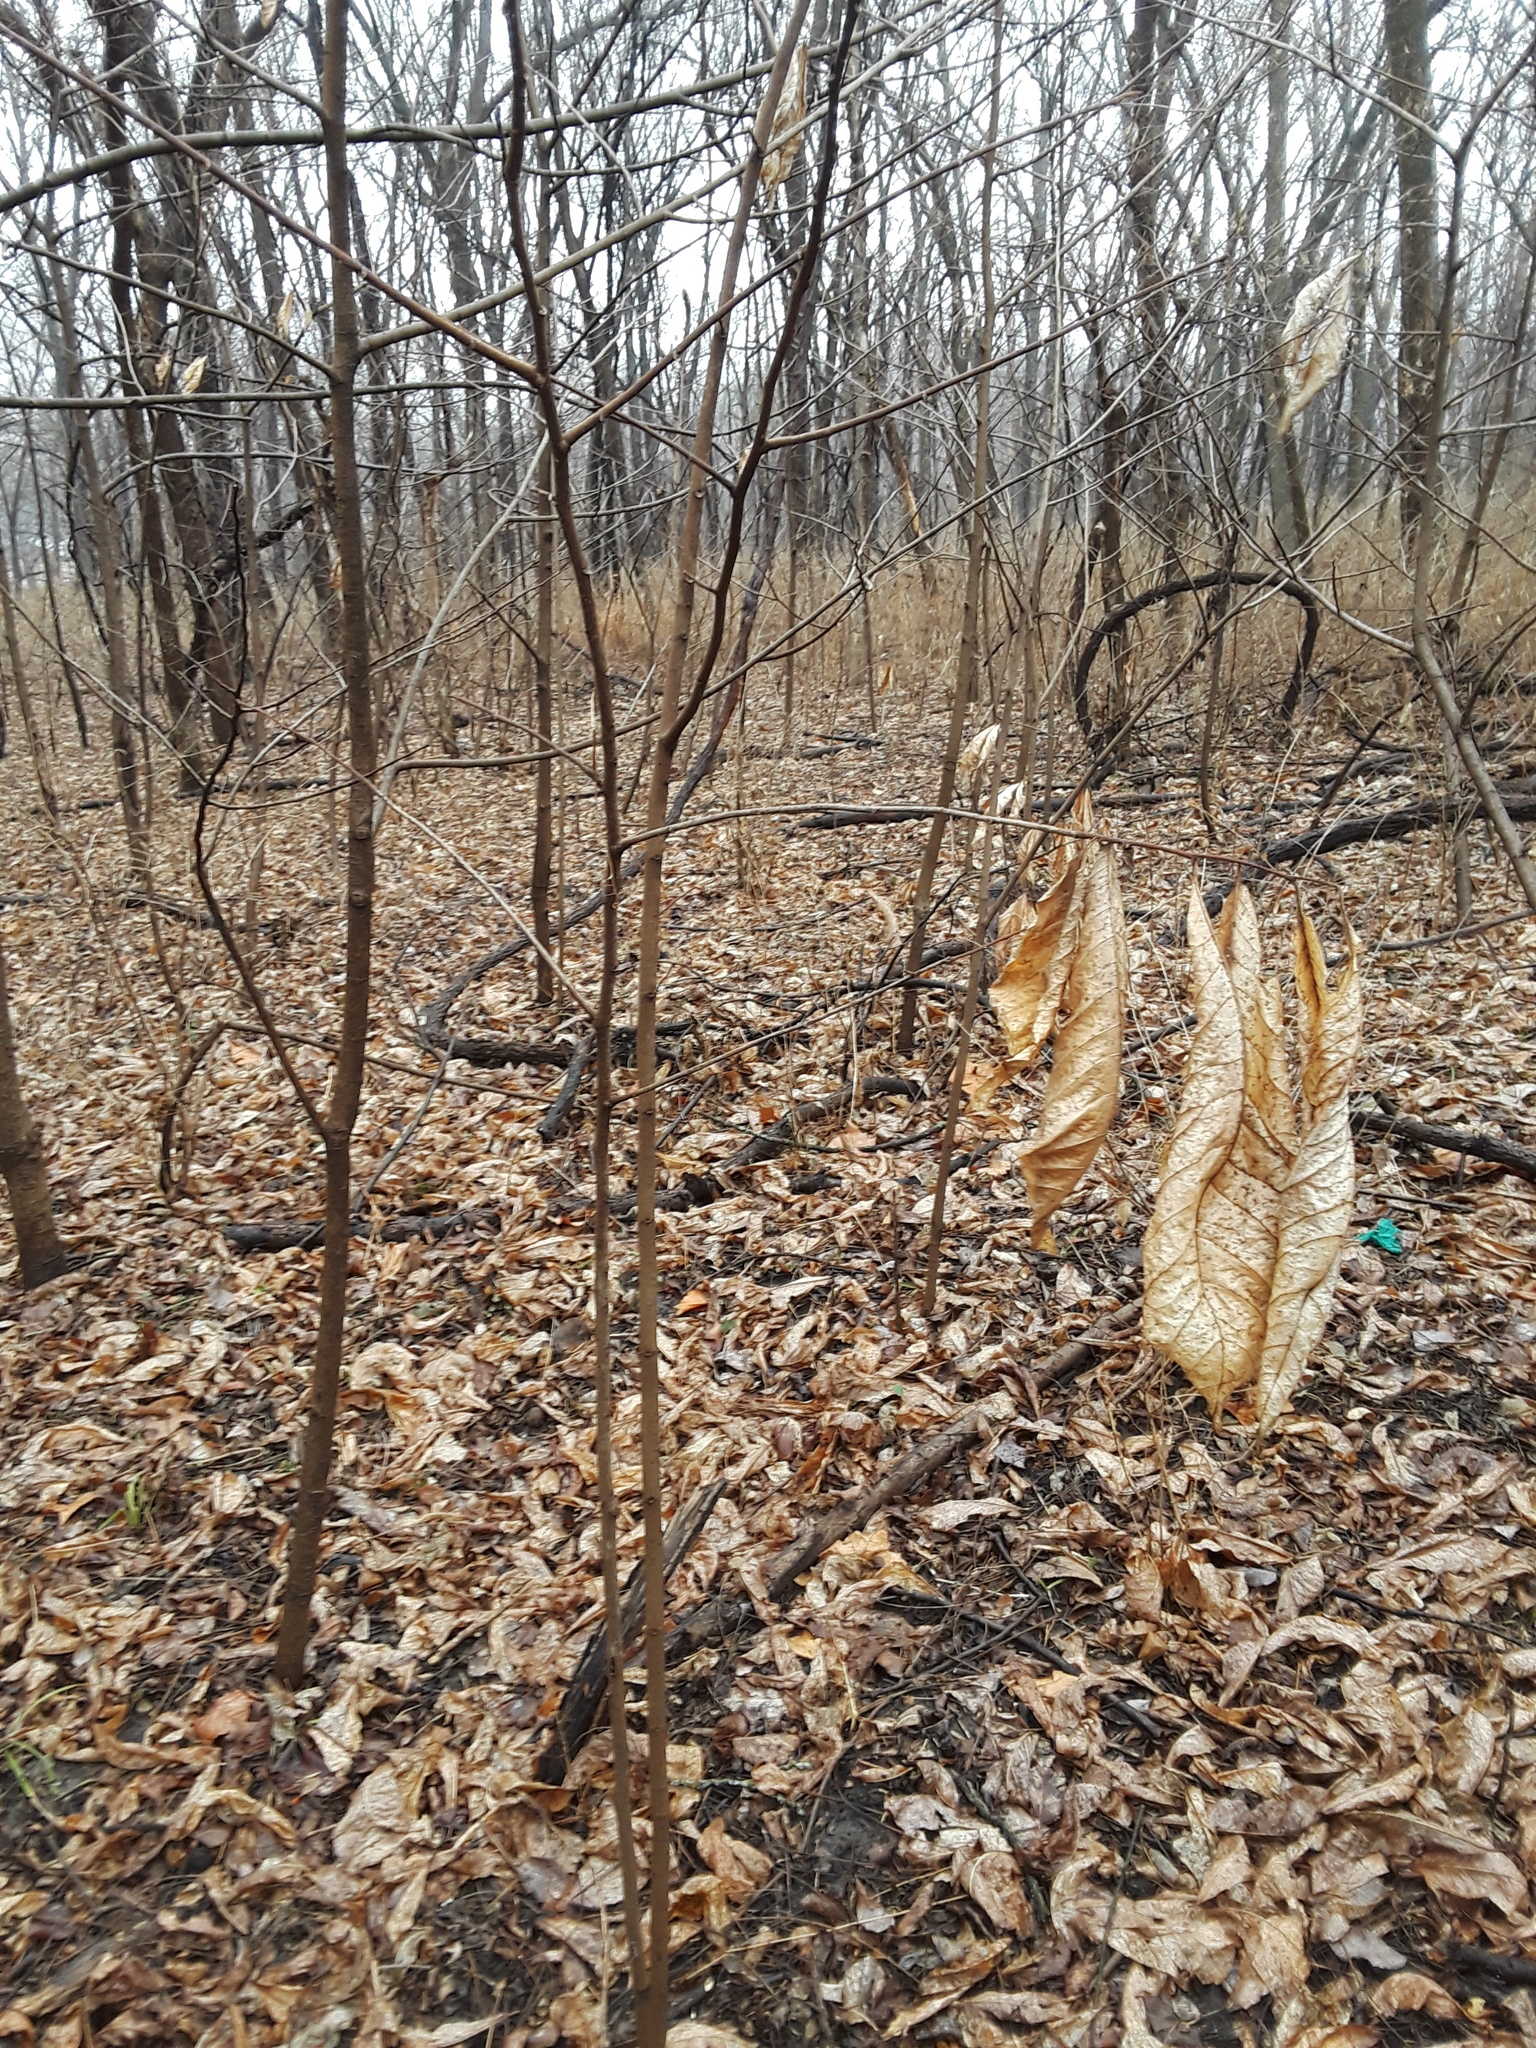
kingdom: Plantae
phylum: Tracheophyta
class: Magnoliopsida
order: Magnoliales
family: Annonaceae
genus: Asimina
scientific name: Asimina triloba
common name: Dog-banana
